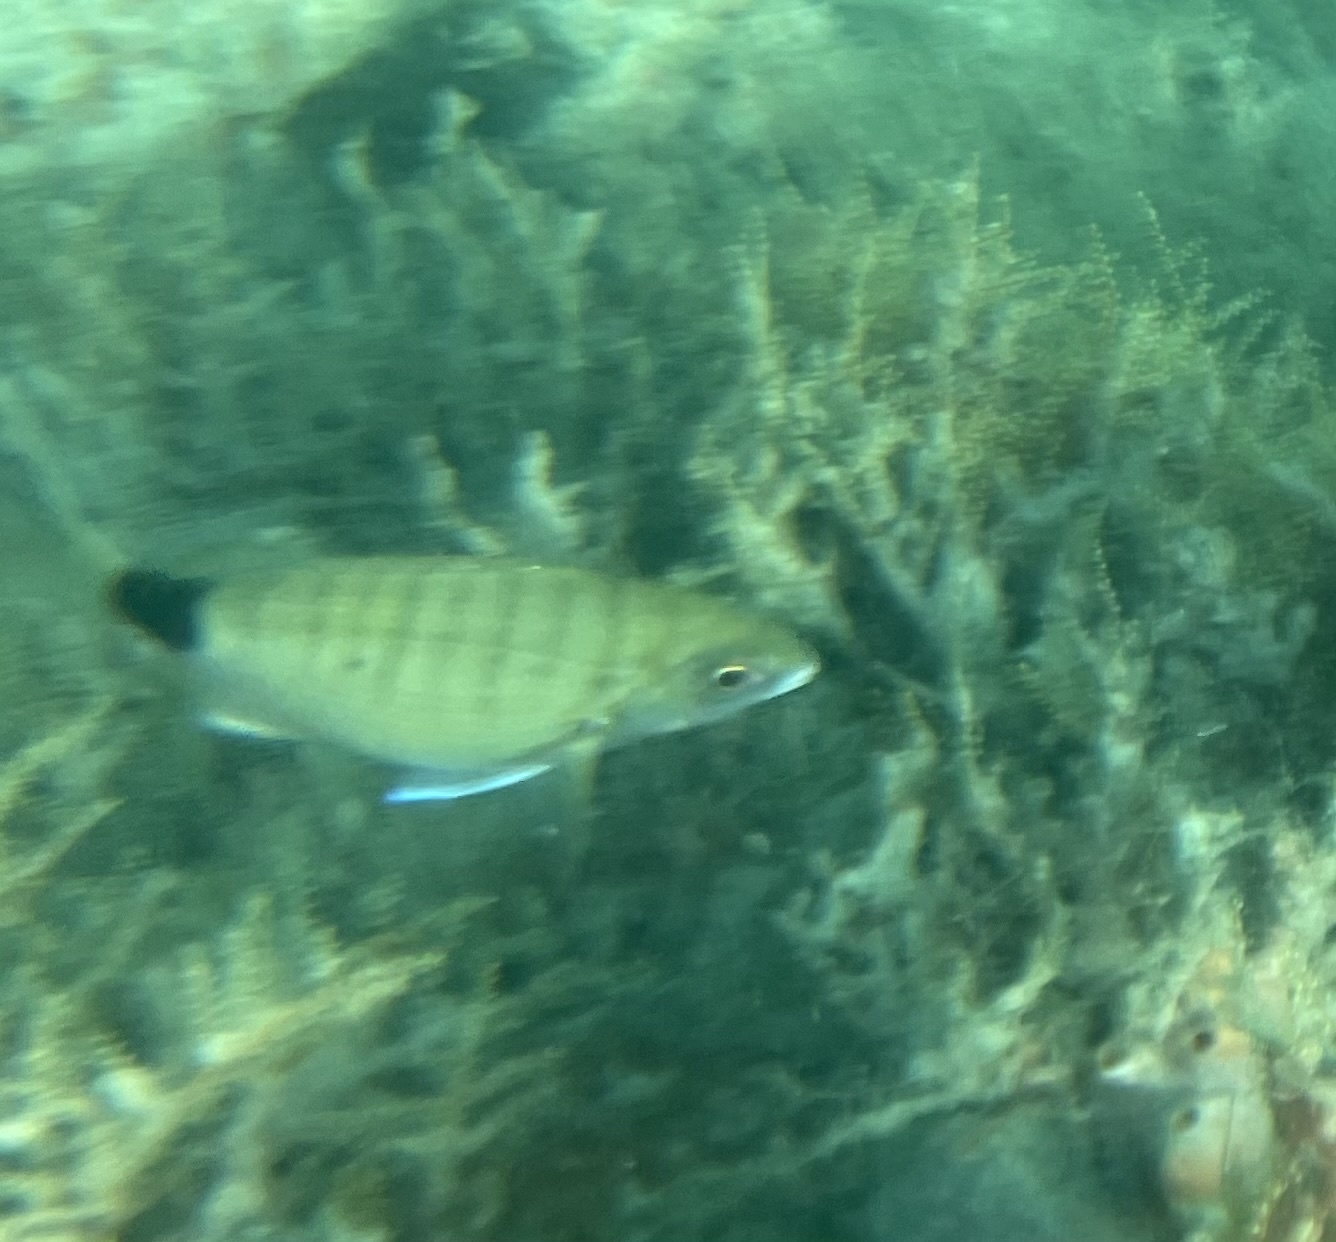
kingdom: Animalia
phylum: Chordata
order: Perciformes
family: Sparidae
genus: Diplodus
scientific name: Diplodus holbrookii
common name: Porgy
